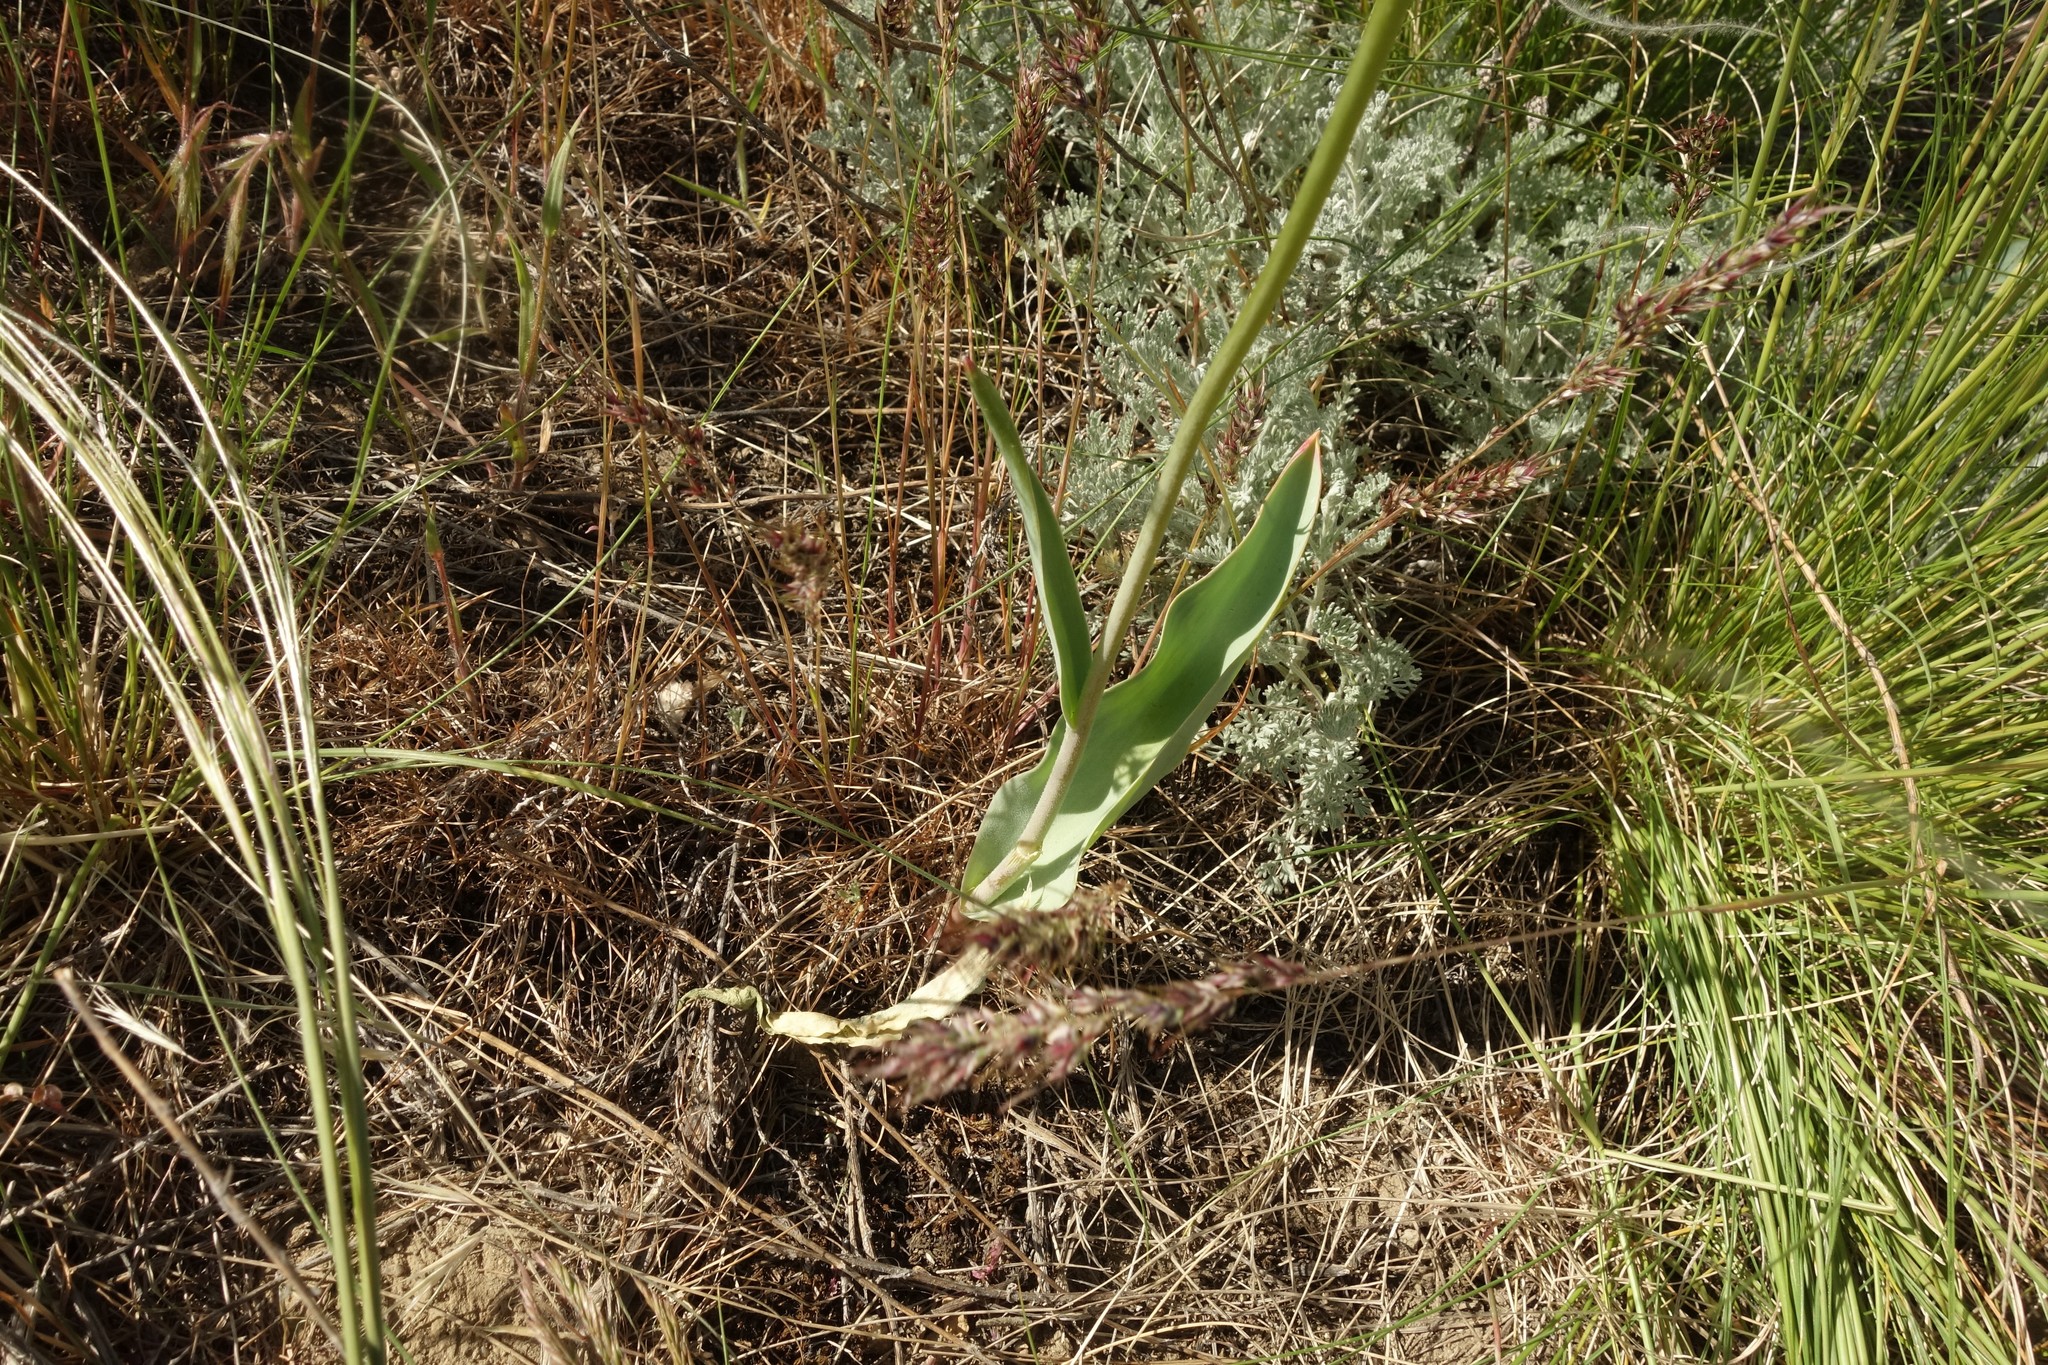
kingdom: Plantae
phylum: Tracheophyta
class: Liliopsida
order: Liliales
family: Liliaceae
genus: Tulipa
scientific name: Tulipa suaveolens
